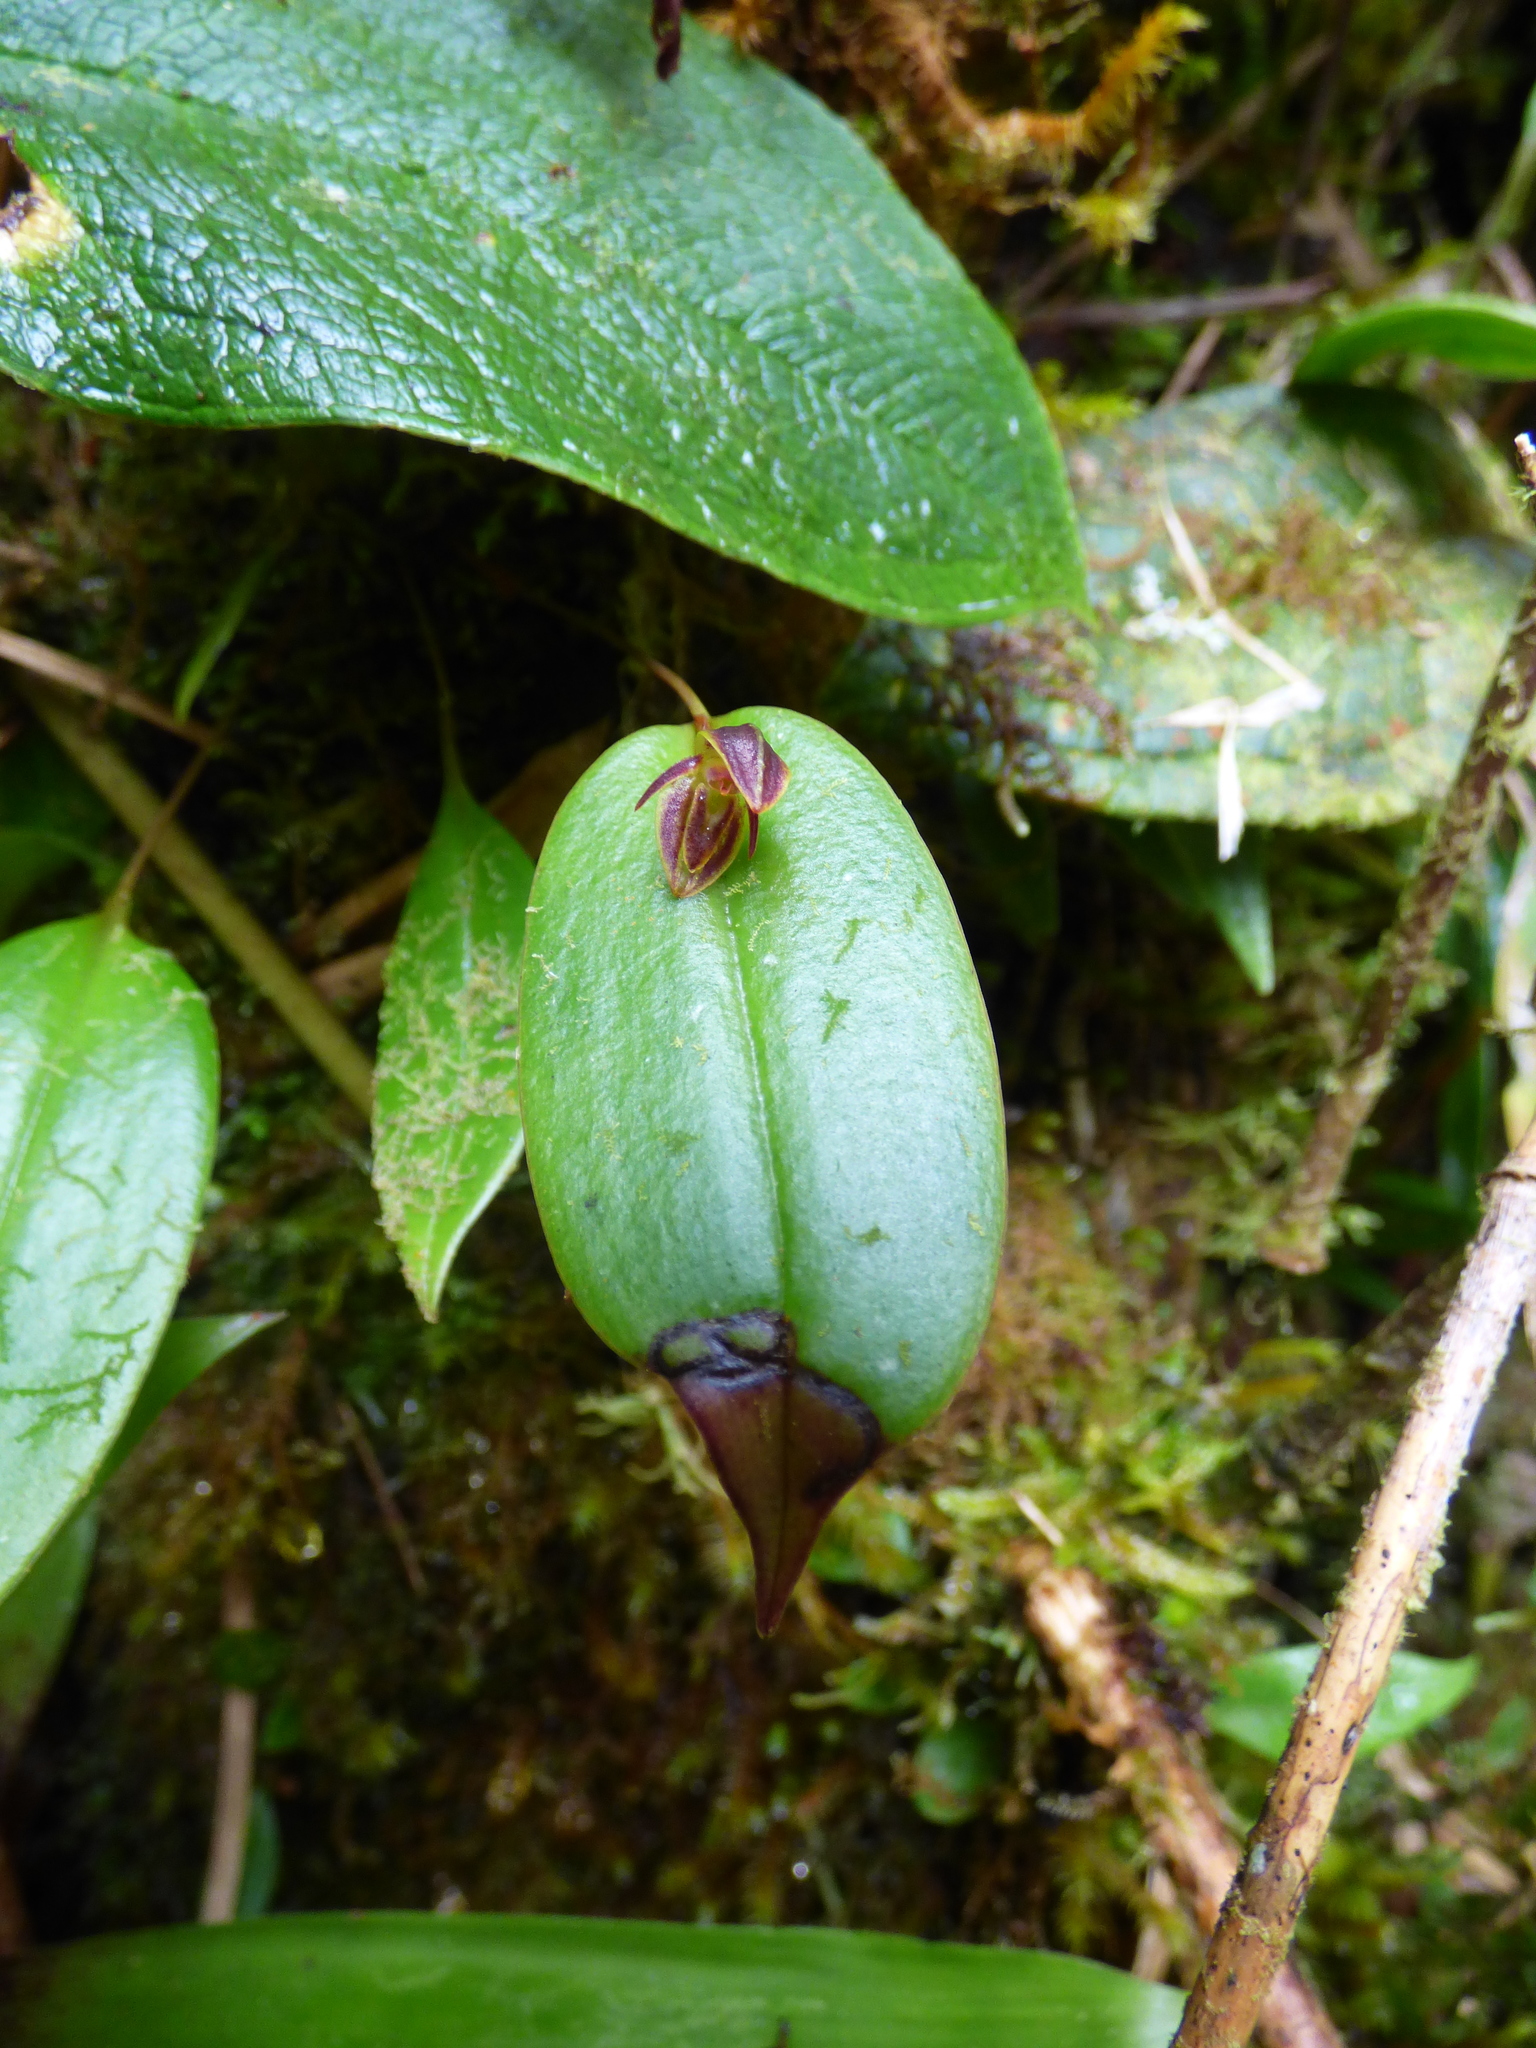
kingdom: Plantae
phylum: Tracheophyta
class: Liliopsida
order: Asparagales
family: Orchidaceae
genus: Pleurothallis
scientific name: Pleurothallis matudana
